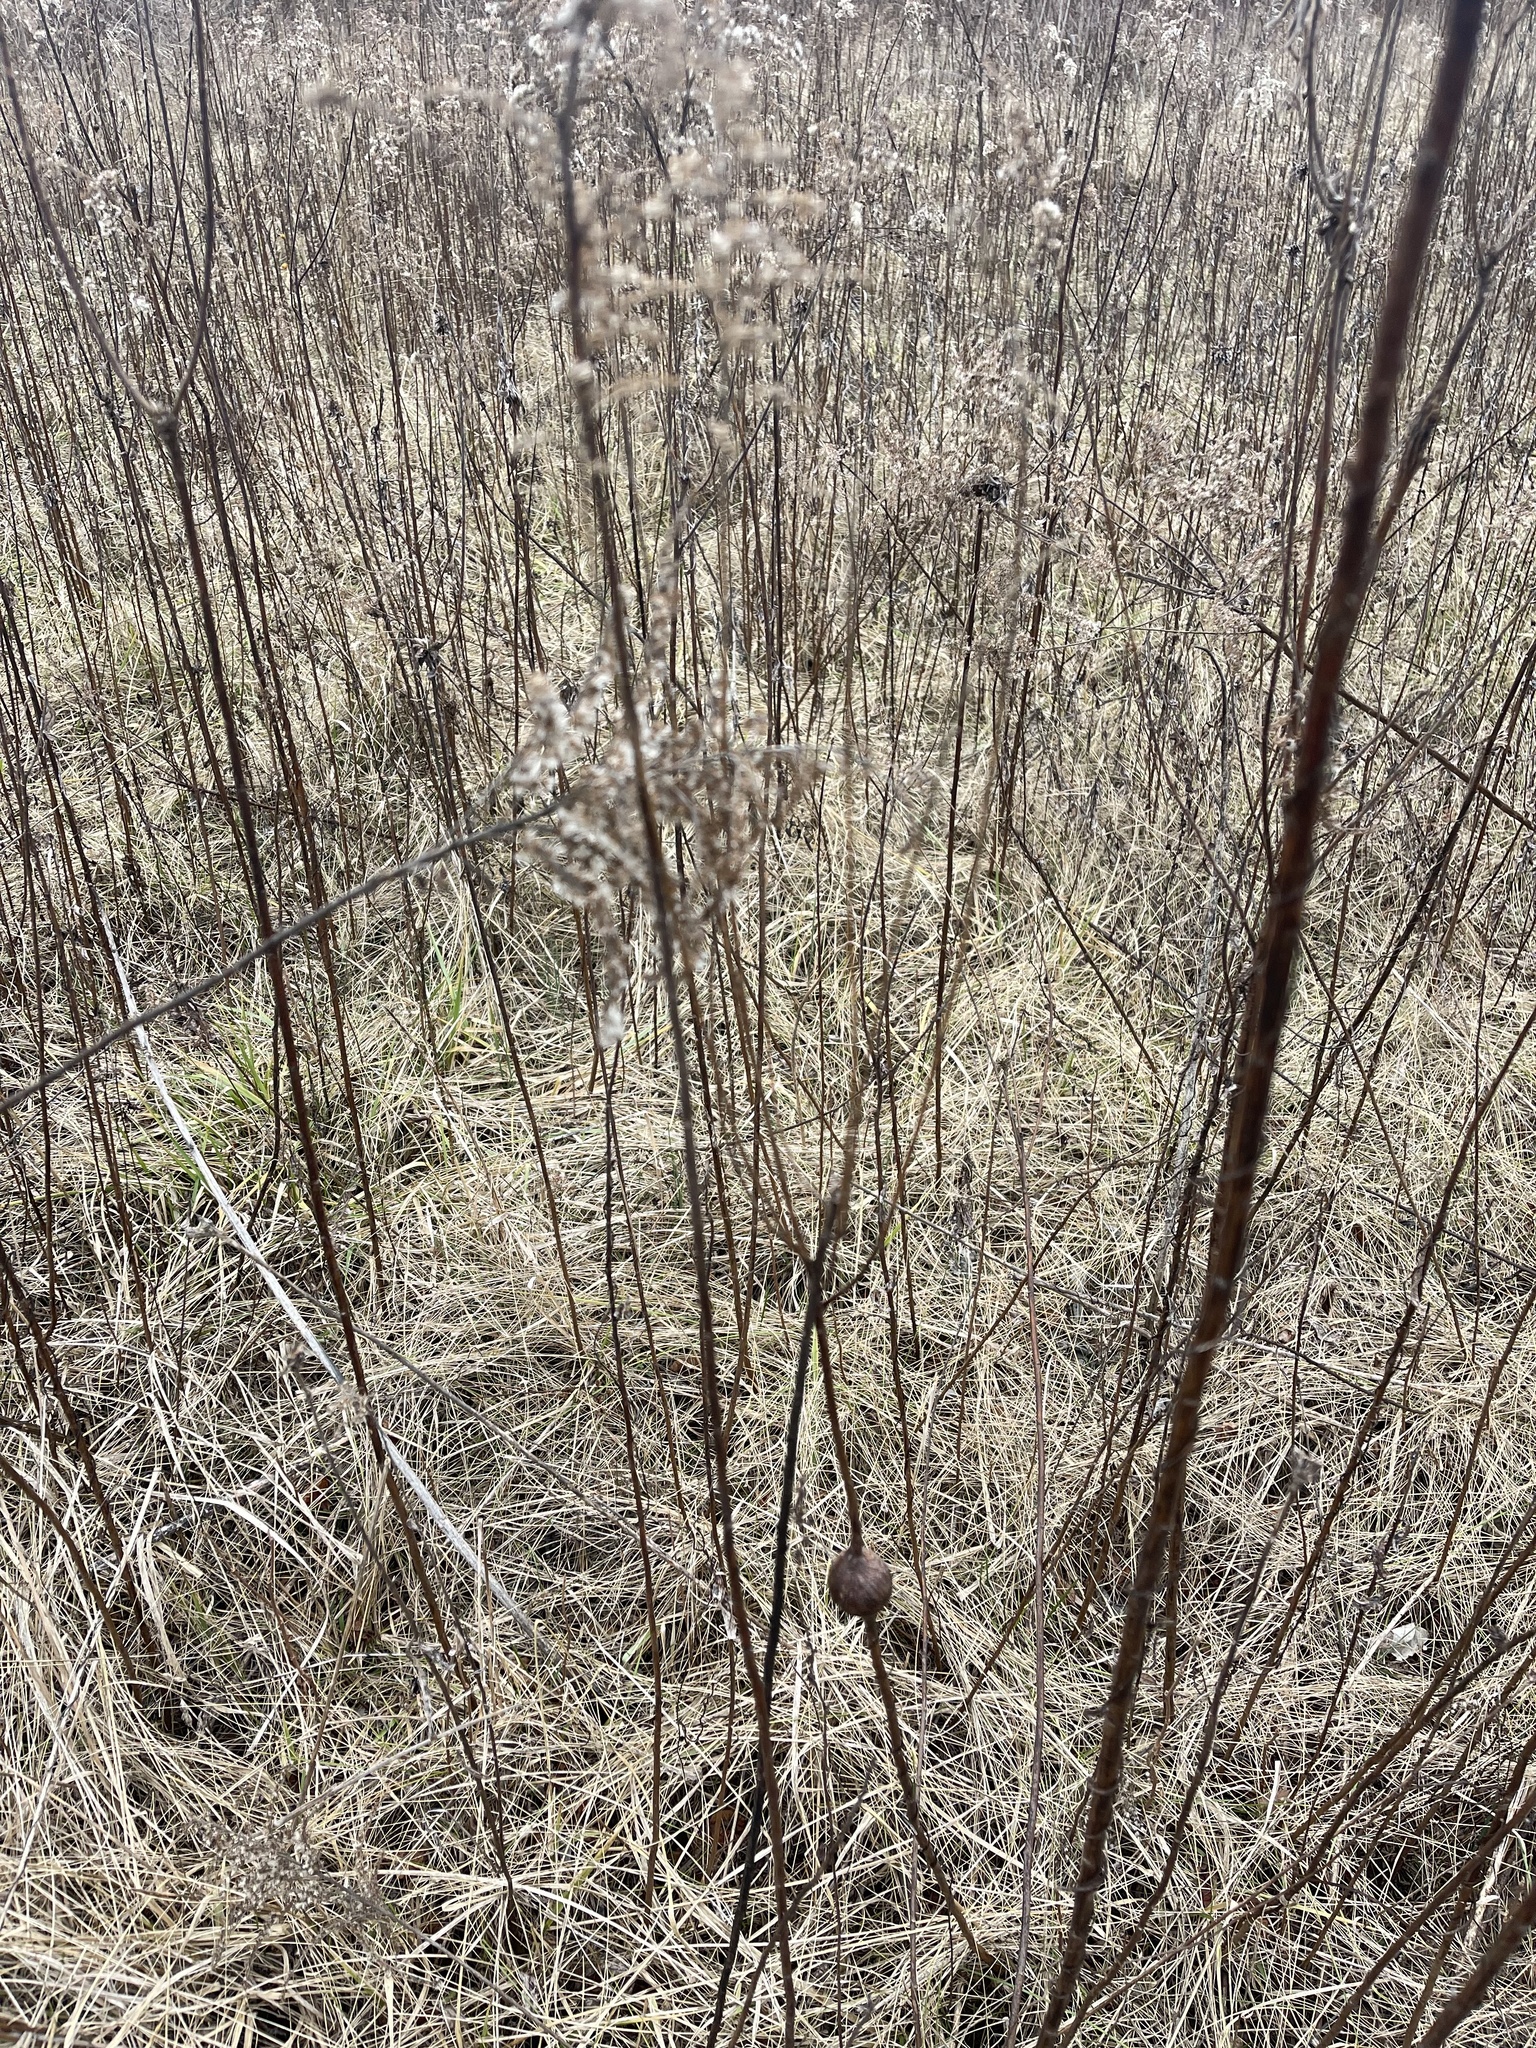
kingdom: Animalia
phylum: Arthropoda
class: Insecta
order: Diptera
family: Tephritidae
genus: Eurosta
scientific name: Eurosta solidaginis
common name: Goldenrod gall fly
